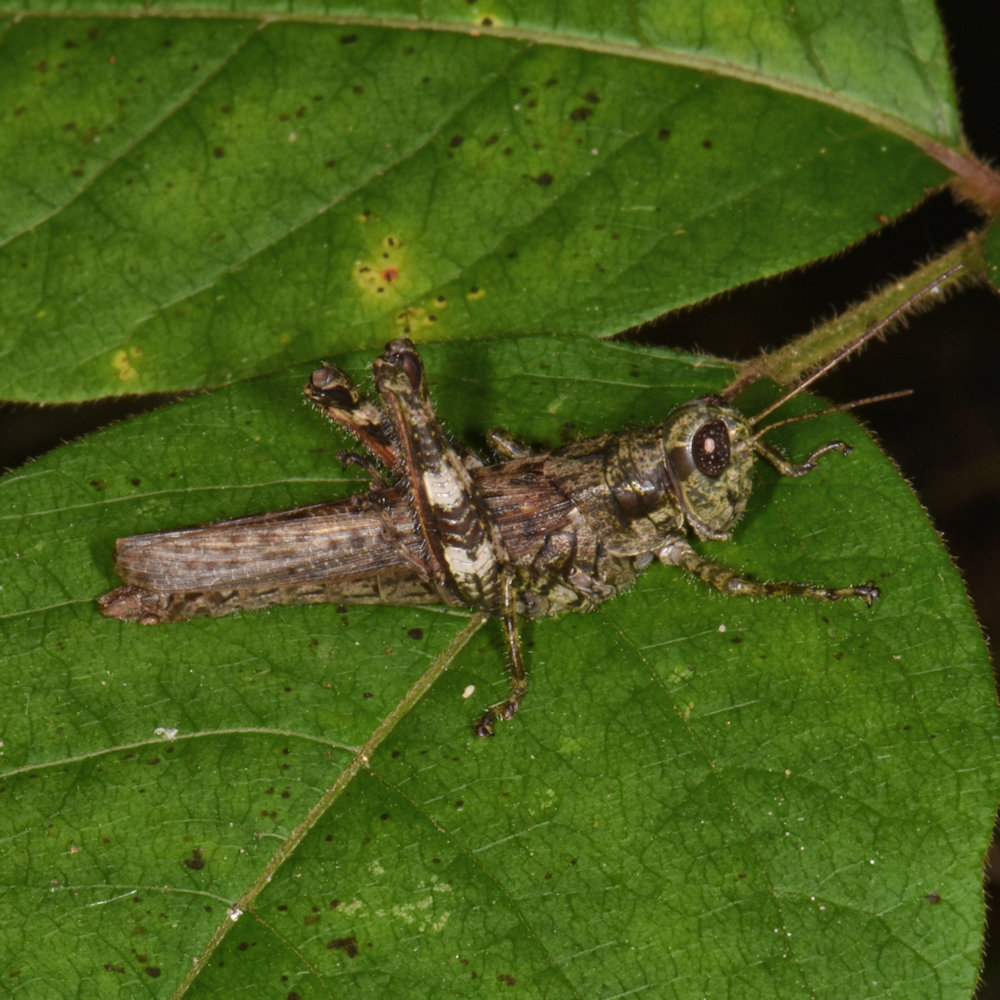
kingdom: Animalia
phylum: Arthropoda
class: Insecta
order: Orthoptera
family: Acrididae
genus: Melanoplus
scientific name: Melanoplus punctulatus
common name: Pine-tree spur-throat grasshopper
